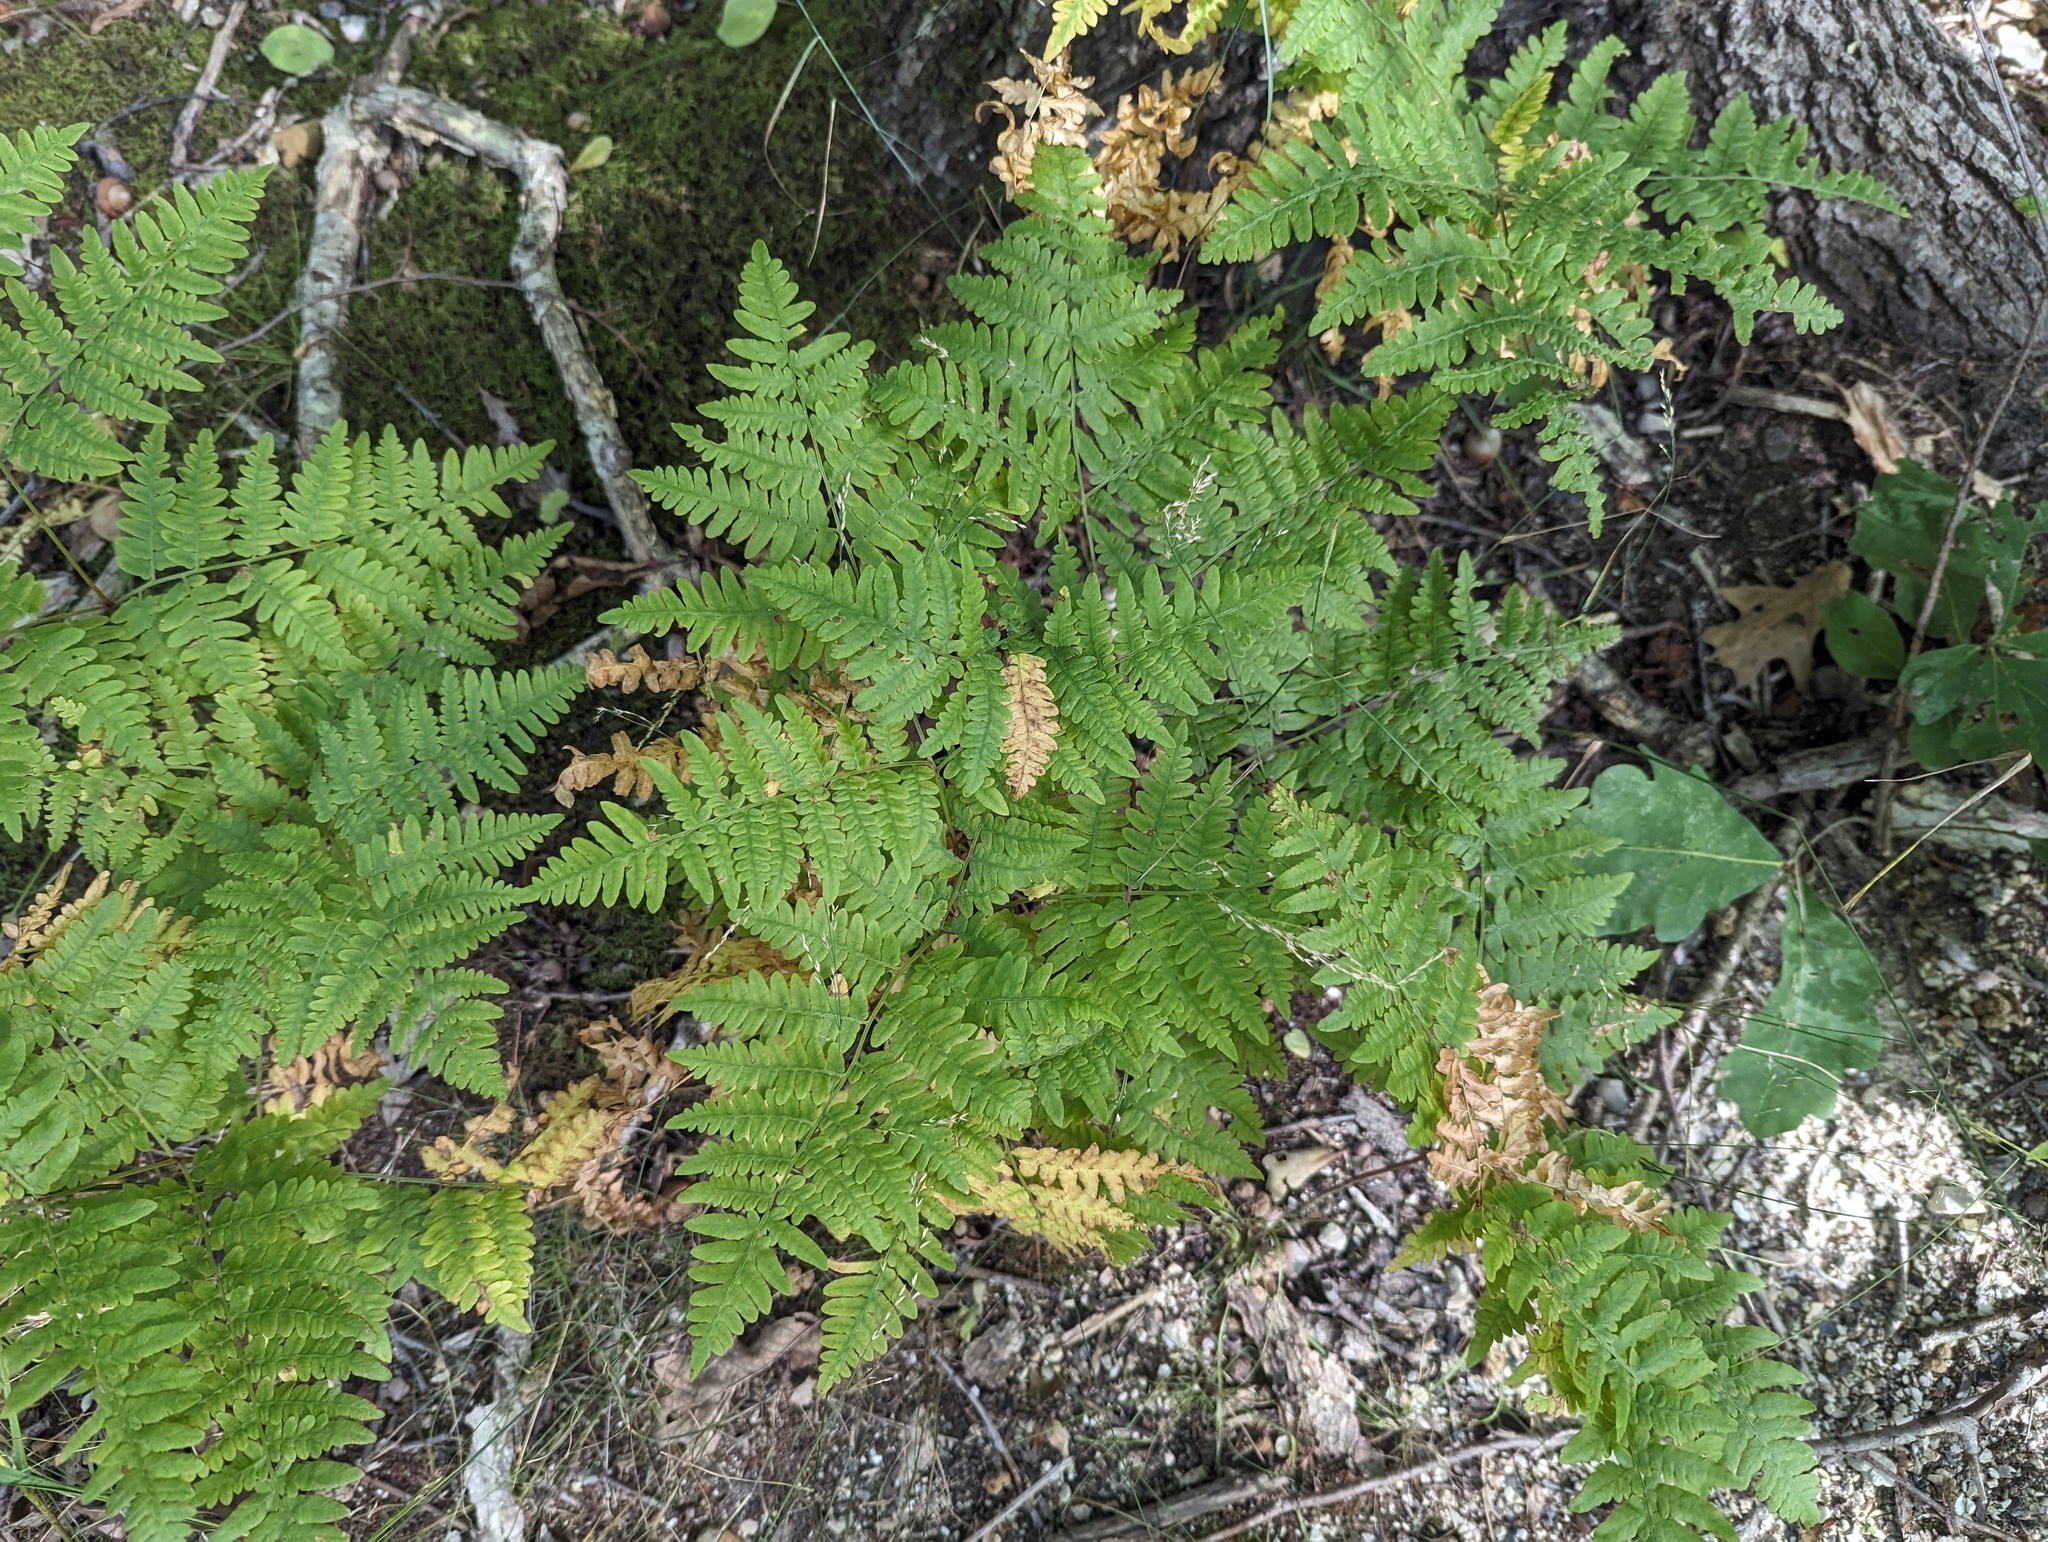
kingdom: Plantae
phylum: Tracheophyta
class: Polypodiopsida
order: Polypodiales
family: Dennstaedtiaceae
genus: Pteridium
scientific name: Pteridium aquilinum
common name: Bracken
